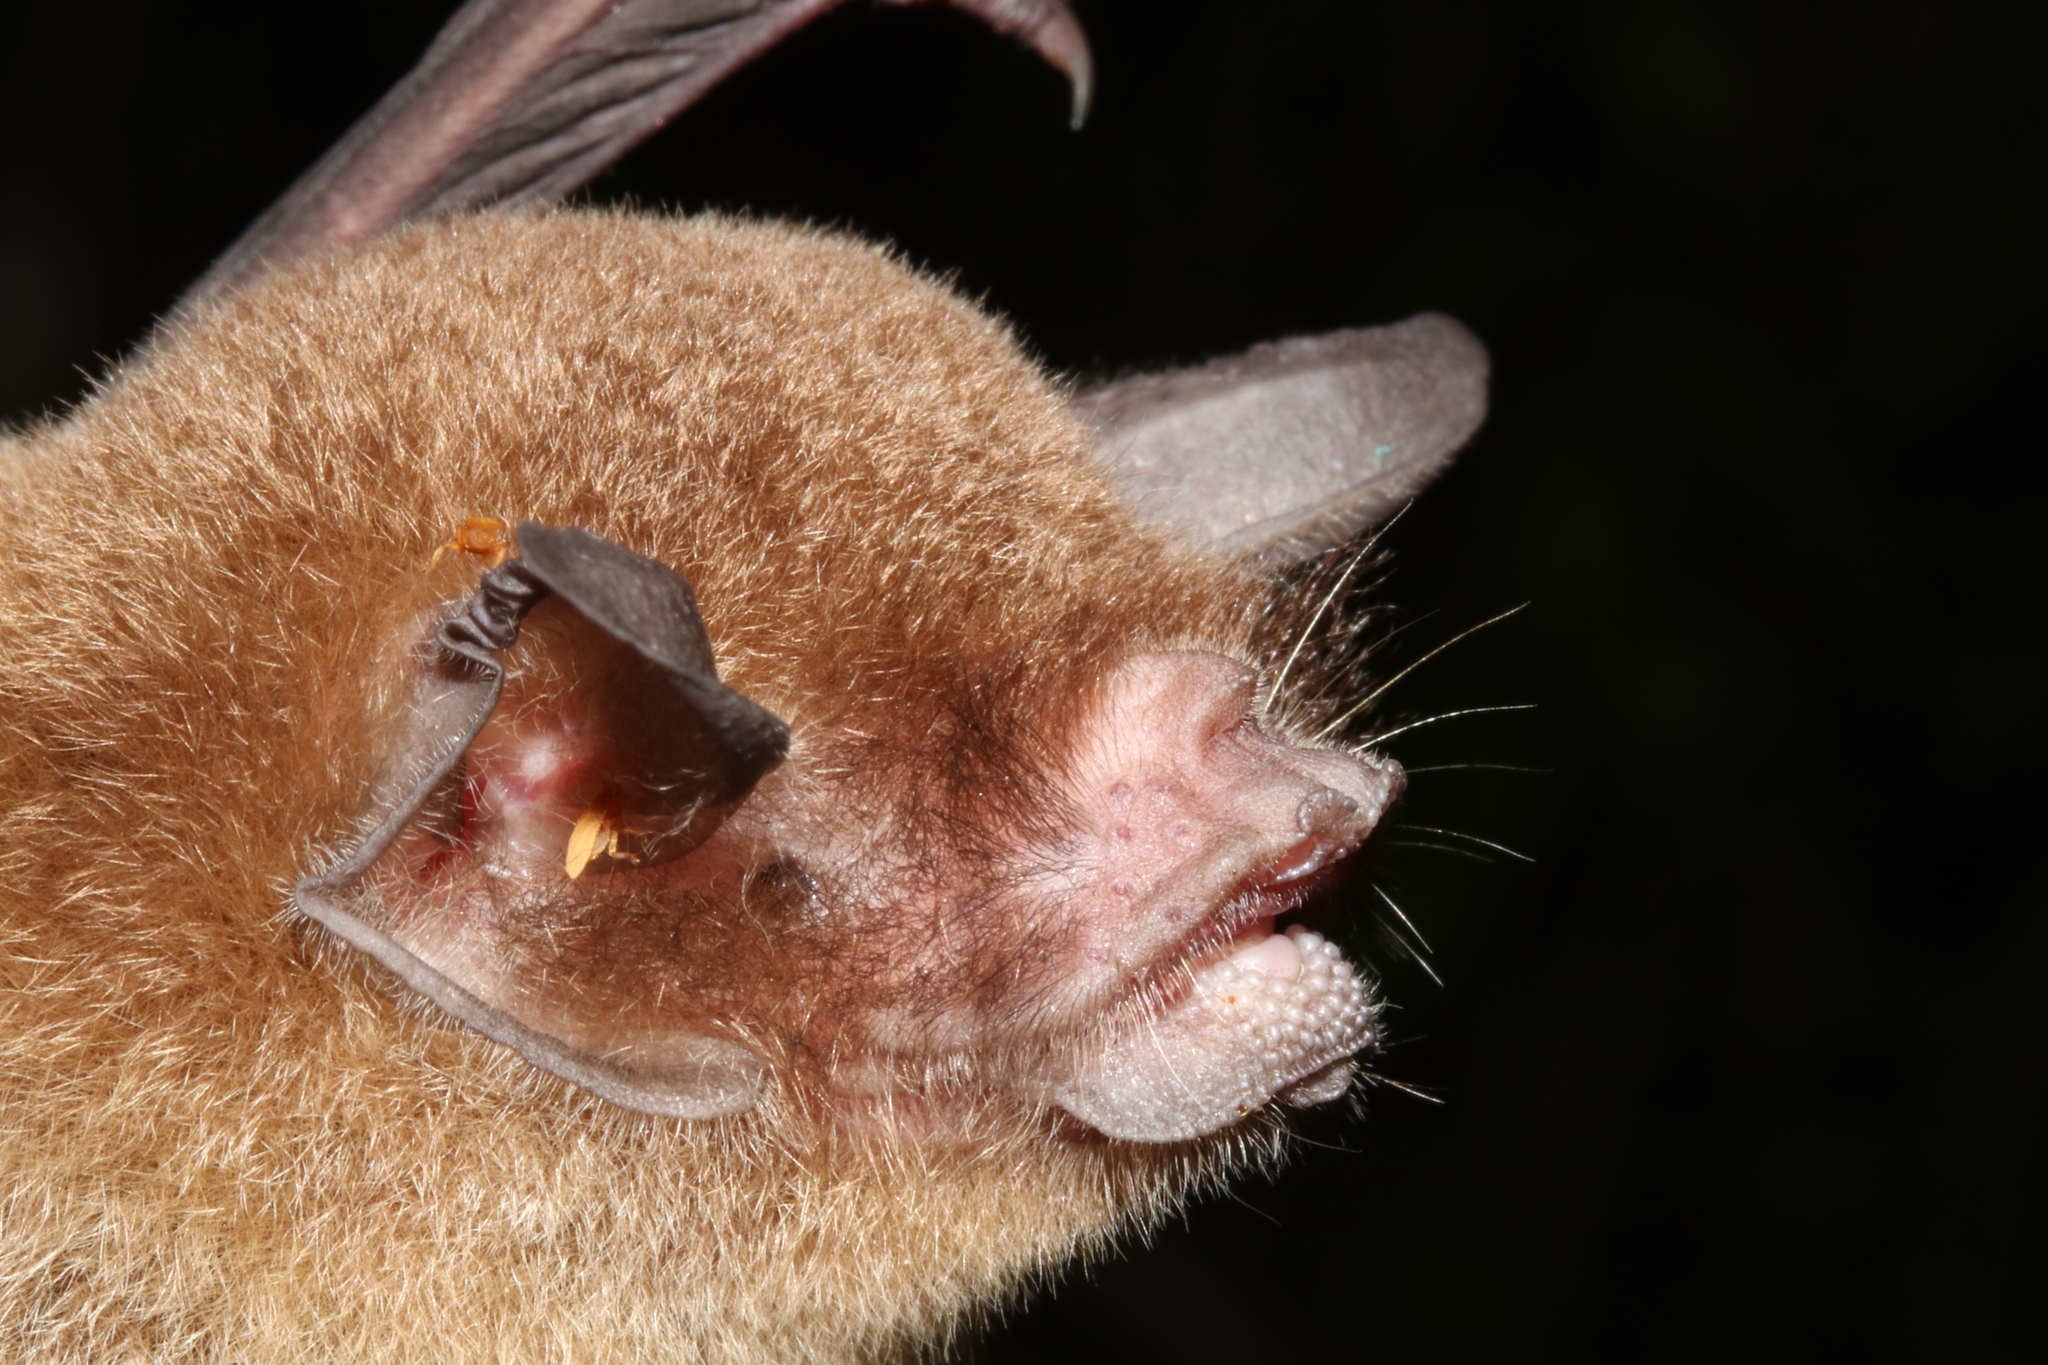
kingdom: Animalia
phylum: Chordata
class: Mammalia
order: Chiroptera
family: Mormoopidae
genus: Pteronotus
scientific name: Pteronotus mesoamericanus
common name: Mesoamerican common mustached bat
